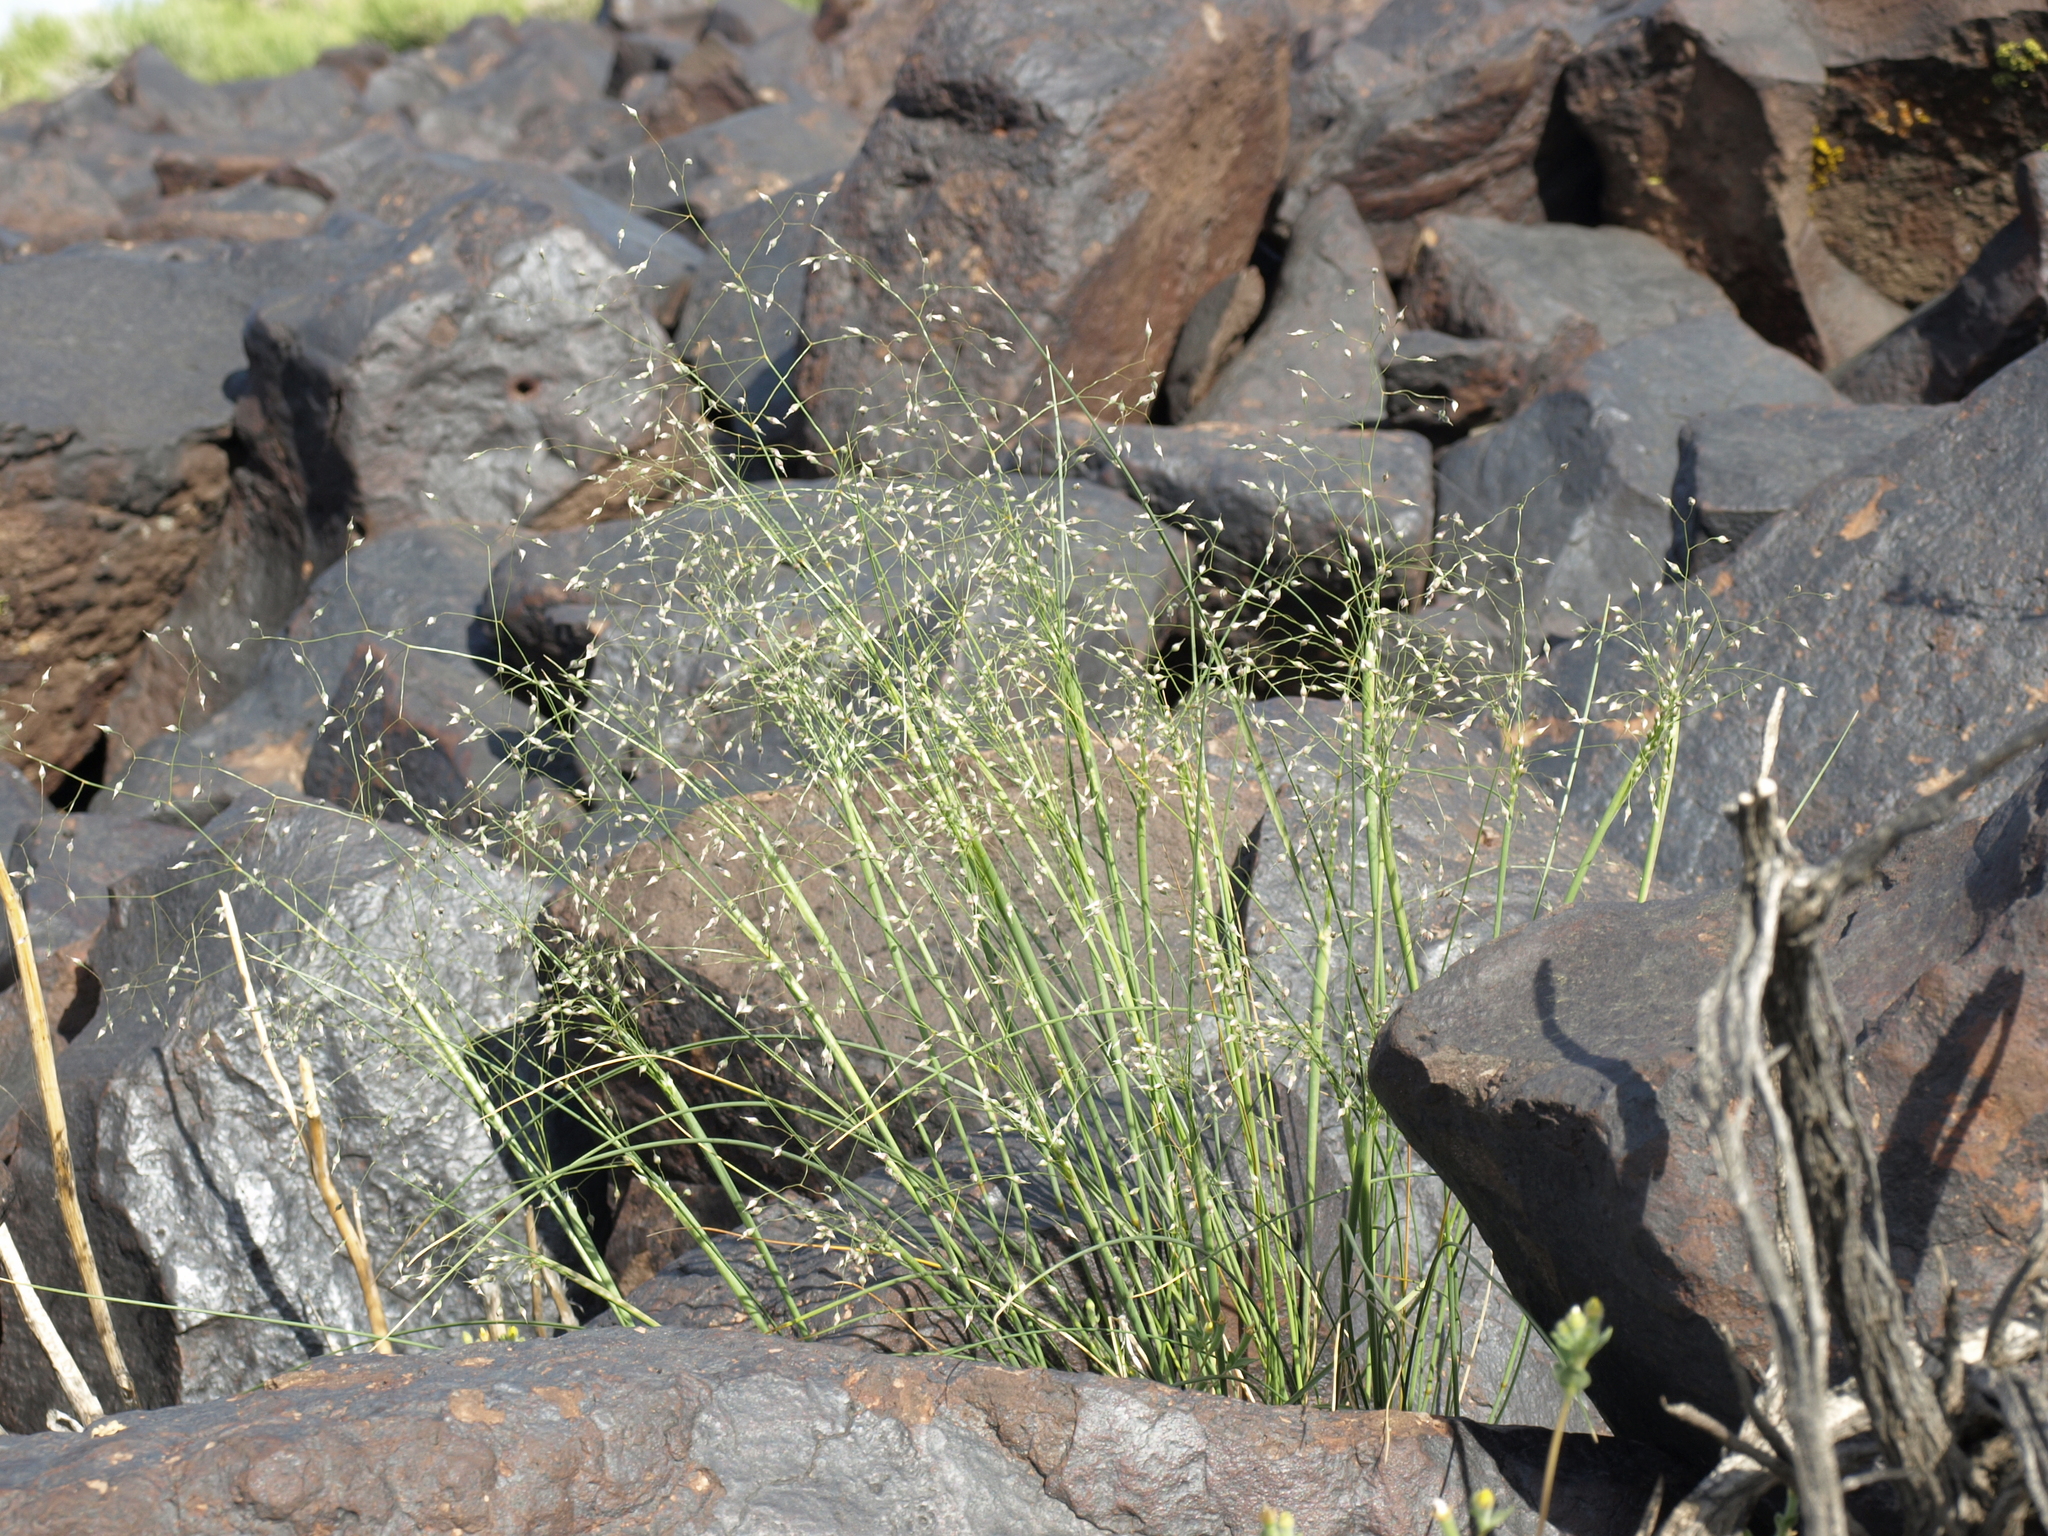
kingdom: Plantae
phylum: Tracheophyta
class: Liliopsida
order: Poales
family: Poaceae
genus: Eriocoma
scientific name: Eriocoma hymenoides
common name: Indian mountain ricegrass
